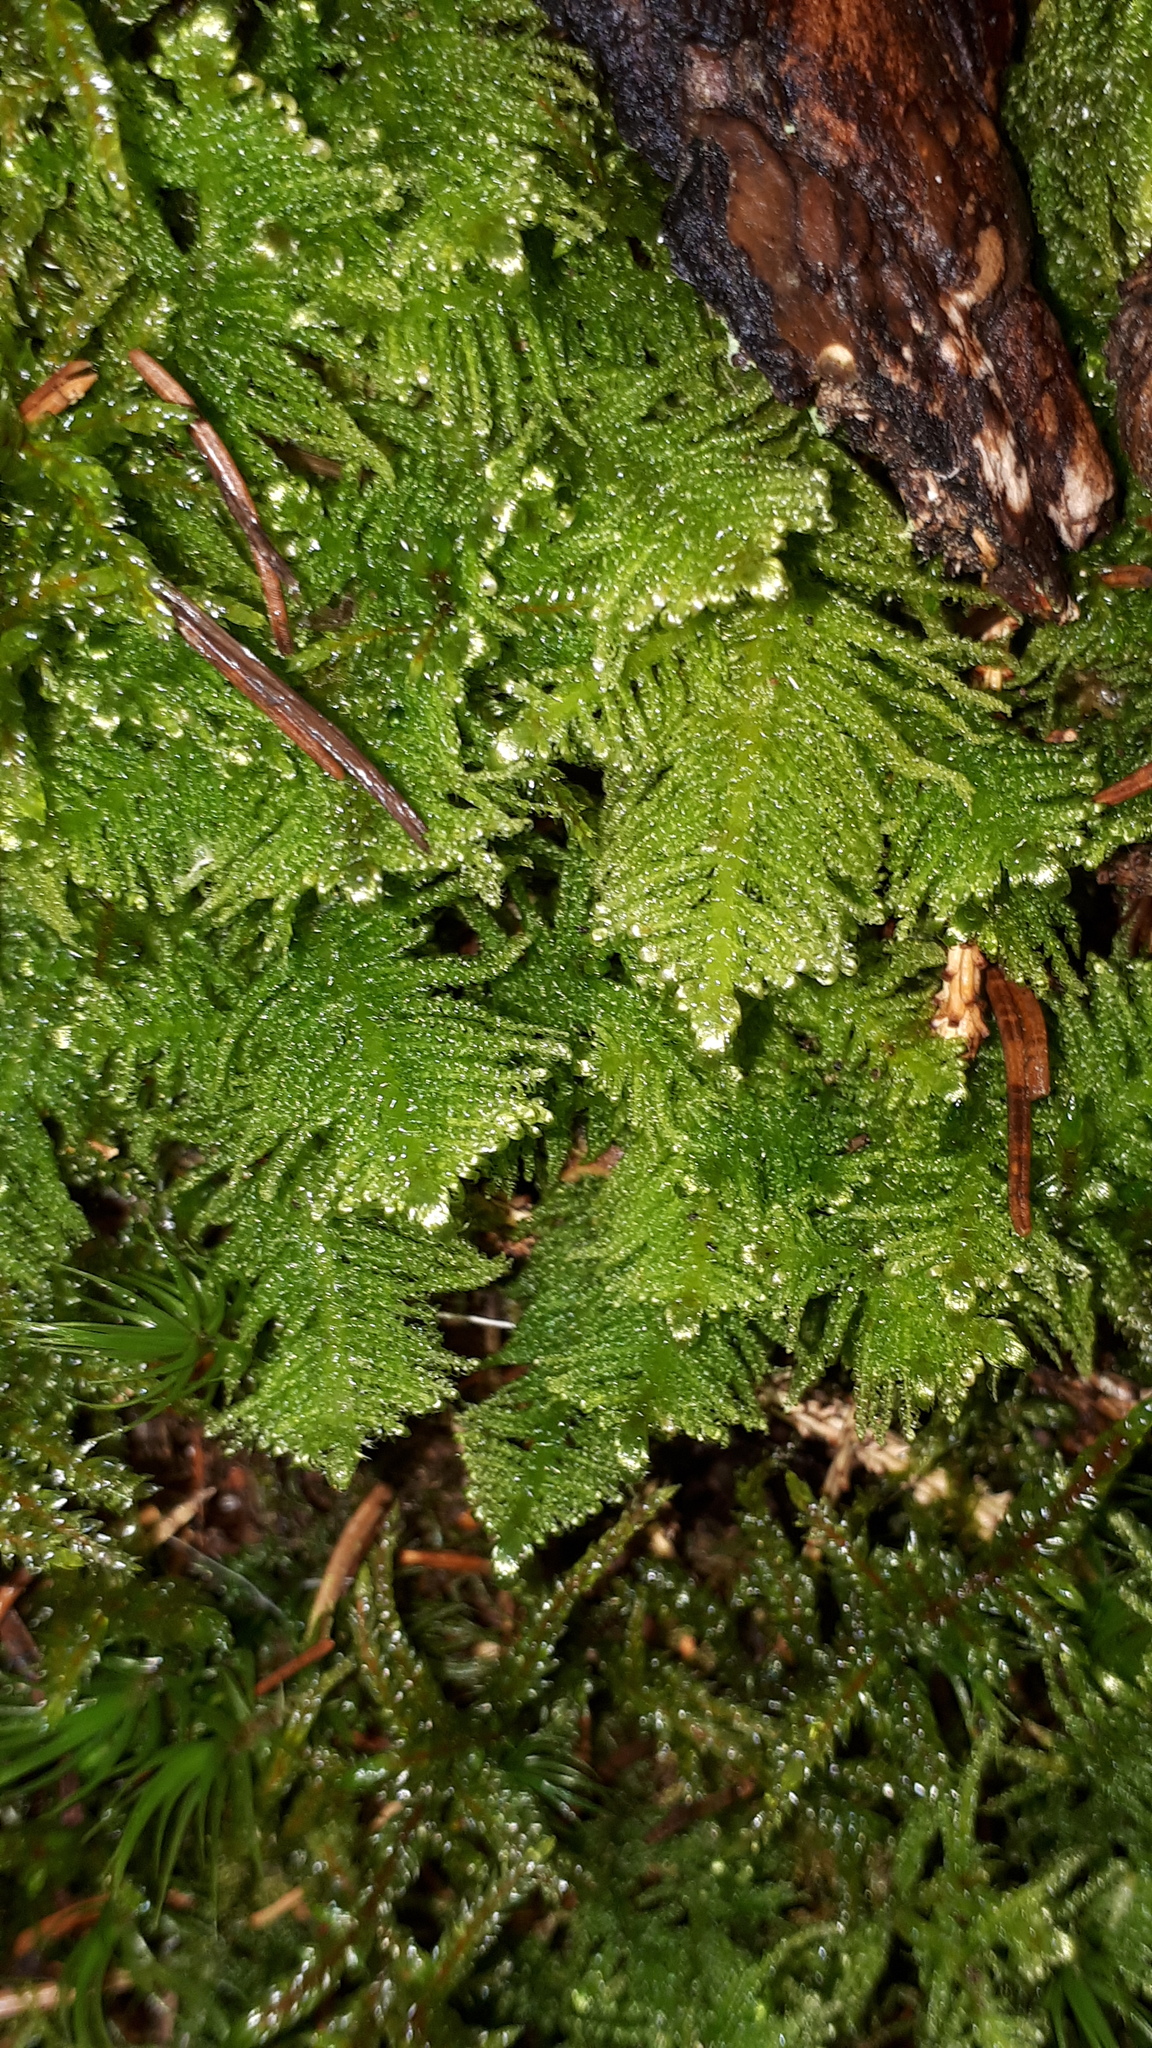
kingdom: Plantae
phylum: Bryophyta
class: Bryopsida
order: Hypnales
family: Pylaisiaceae
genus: Ptilium
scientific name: Ptilium crista-castrensis
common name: Knight's plume moss
